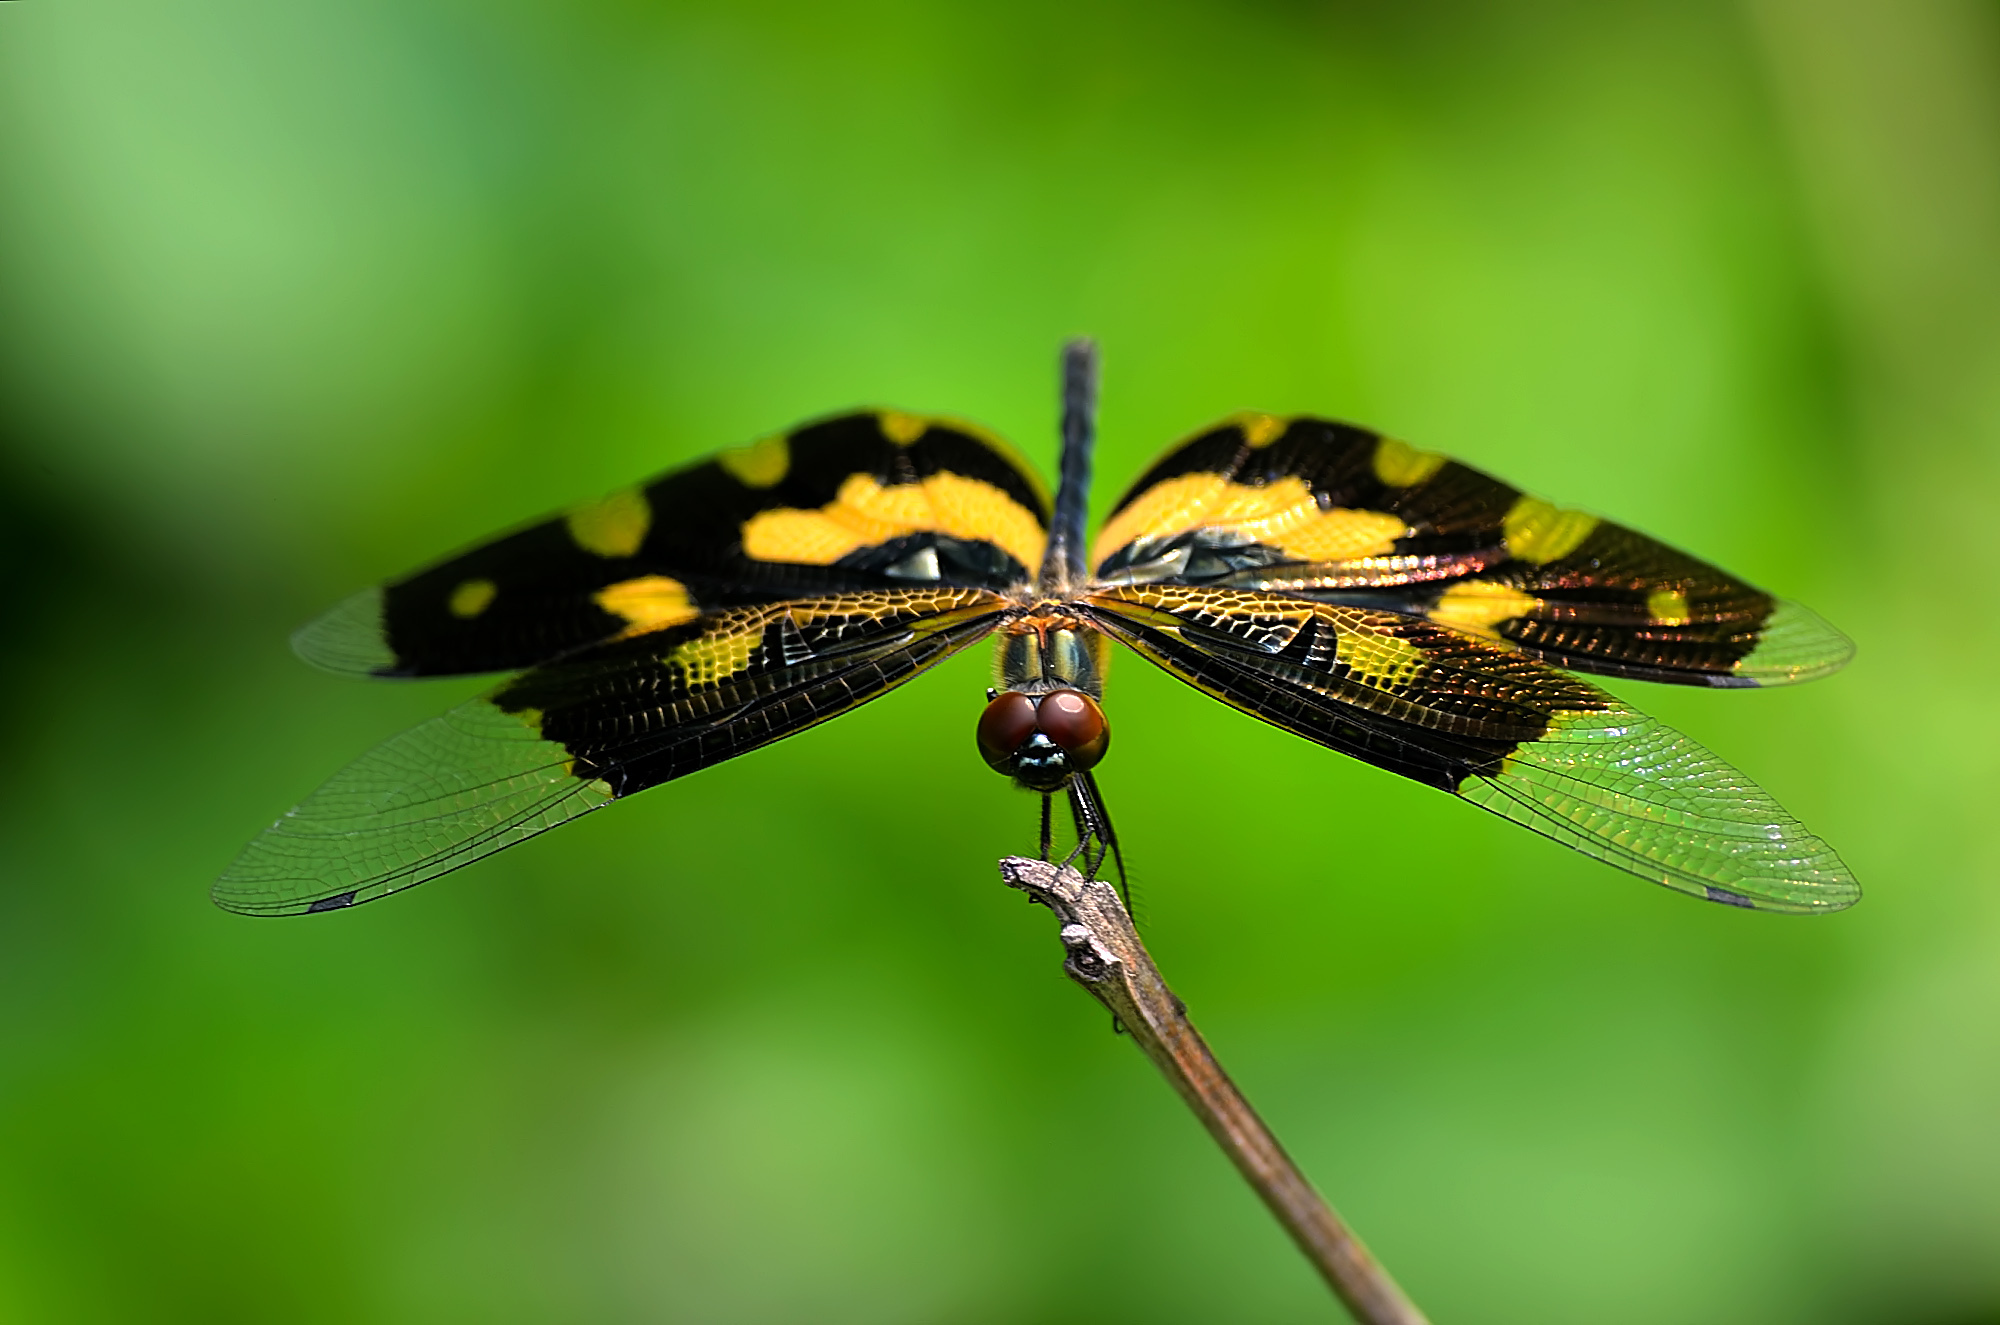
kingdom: Animalia
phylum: Arthropoda
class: Insecta
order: Odonata
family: Libellulidae
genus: Rhyothemis
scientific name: Rhyothemis variegata
